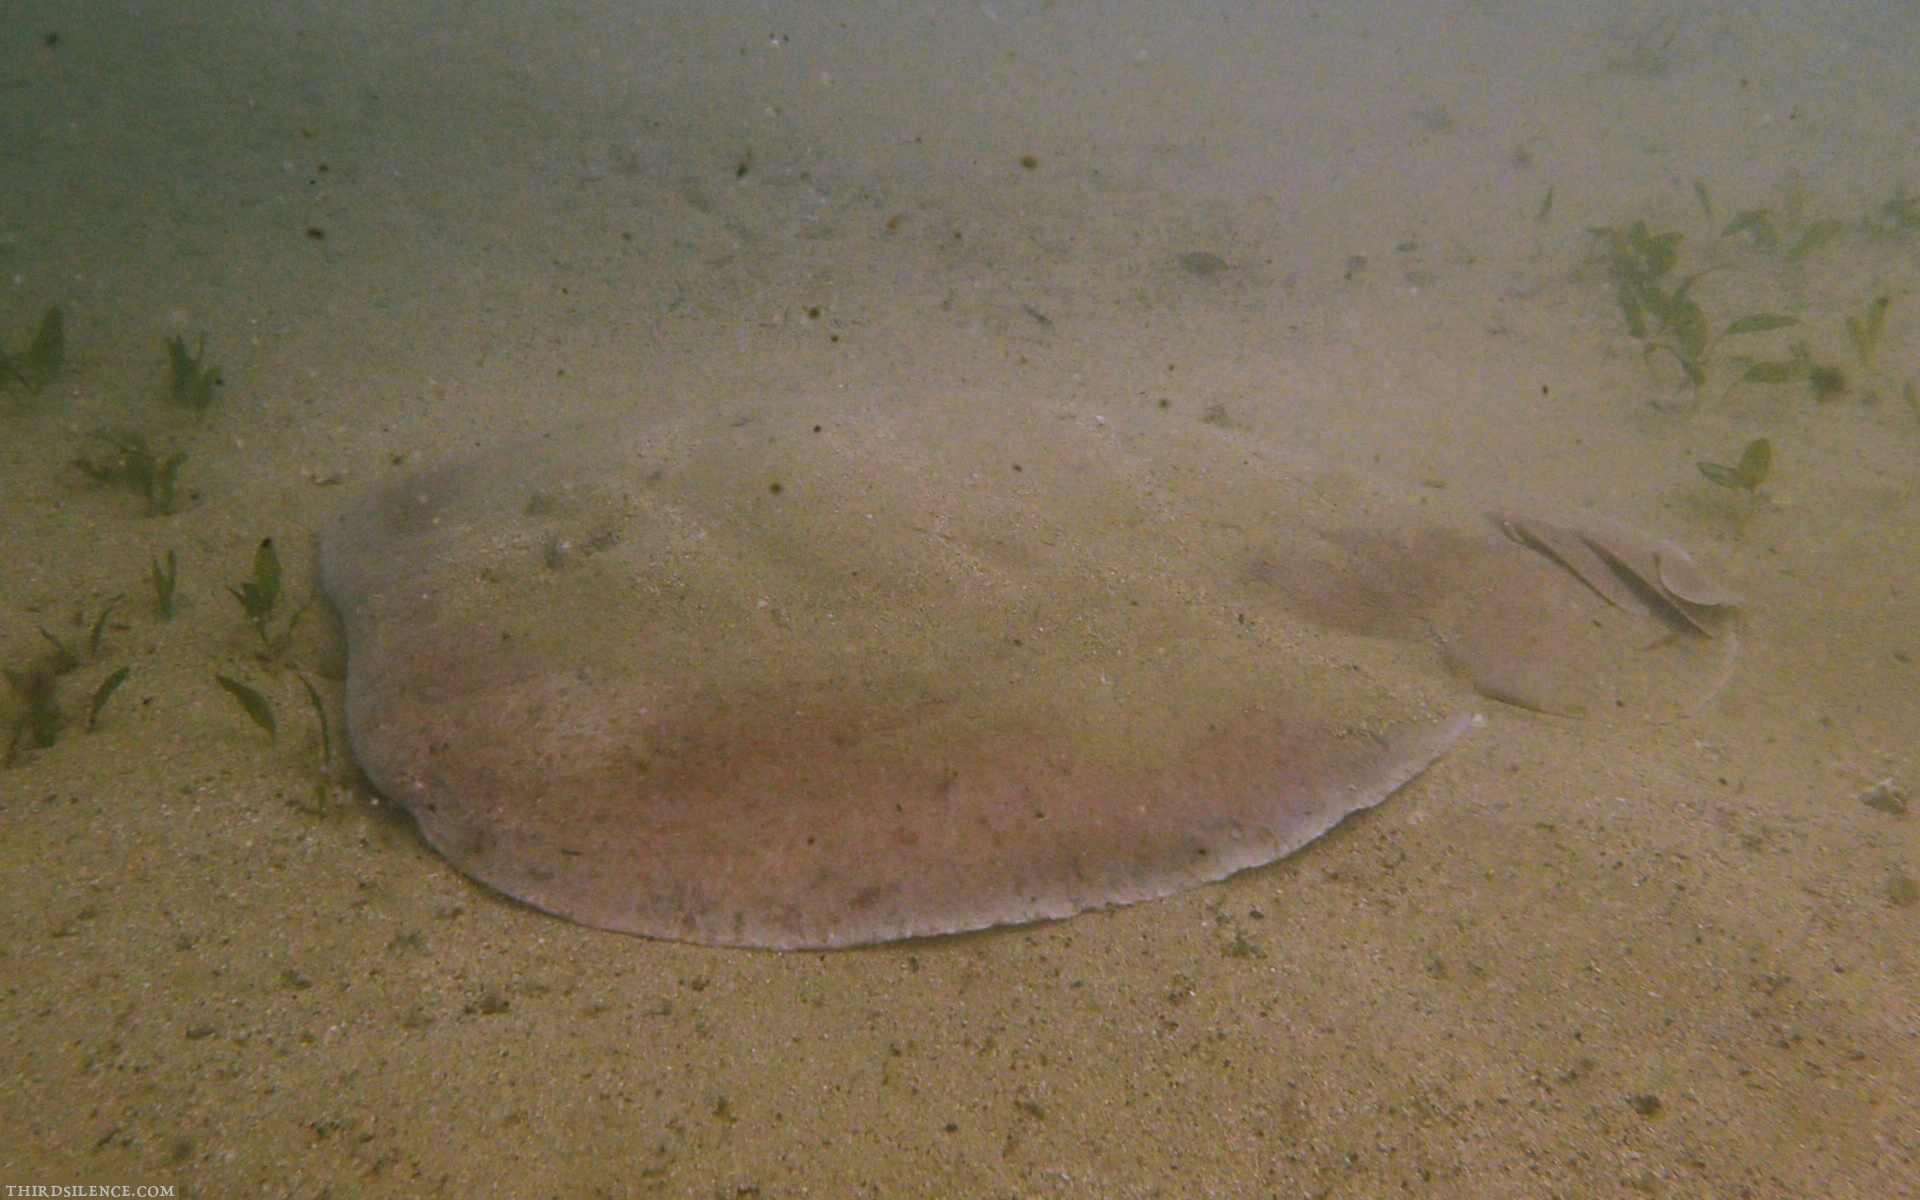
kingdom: Animalia
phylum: Chordata
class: Elasmobranchii
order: Torpediniformes
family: Hypnidae
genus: Hypnos
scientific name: Hypnos monopterygius
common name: Australian numbfish
